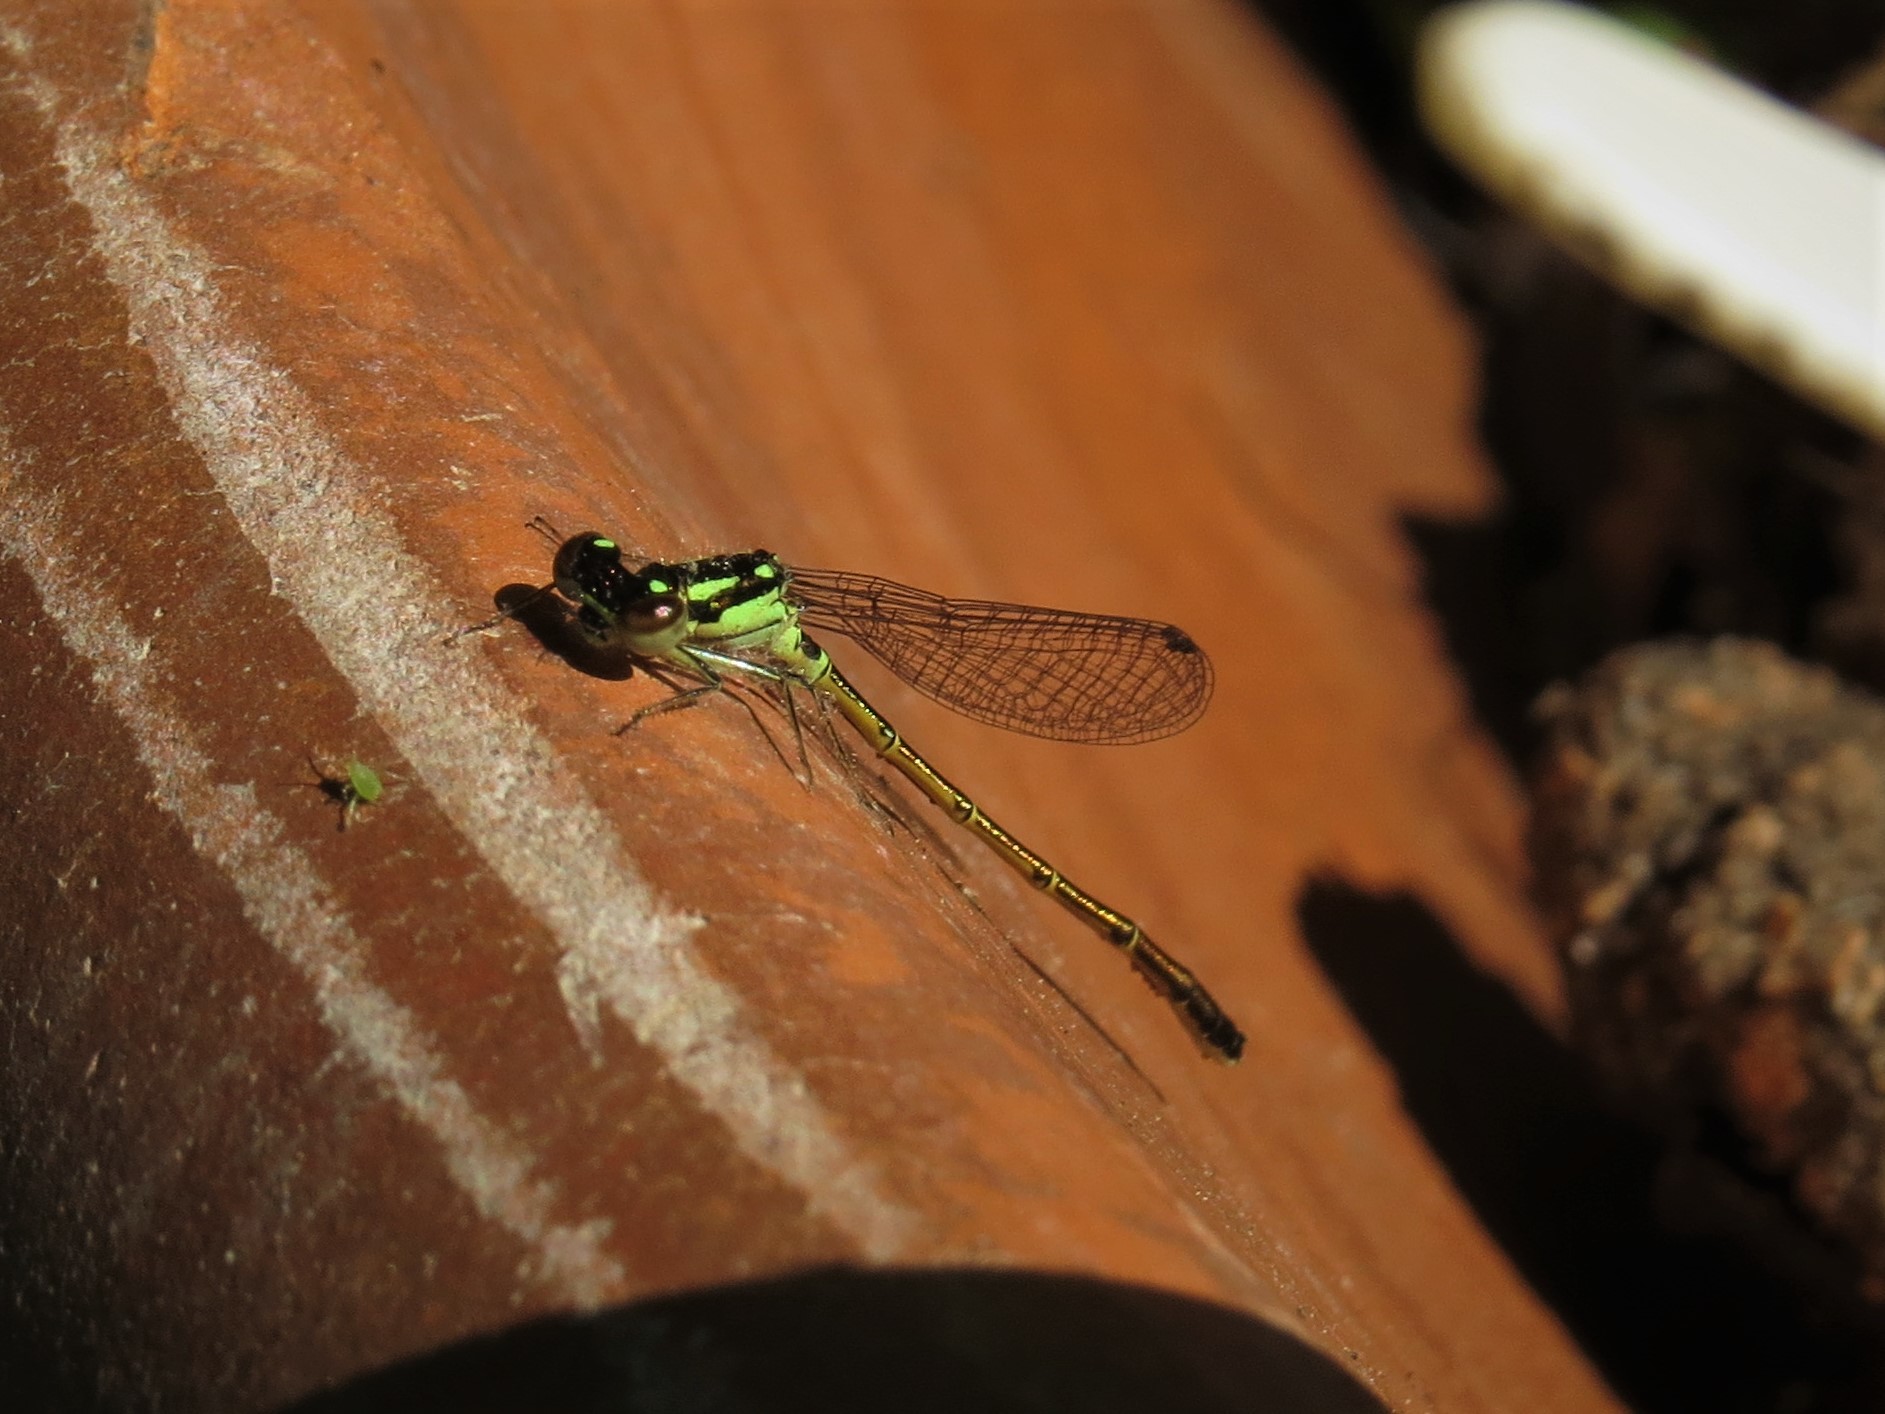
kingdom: Animalia
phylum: Arthropoda
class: Insecta
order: Odonata
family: Coenagrionidae
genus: Ischnura
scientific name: Ischnura posita
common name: Fragile forktail
